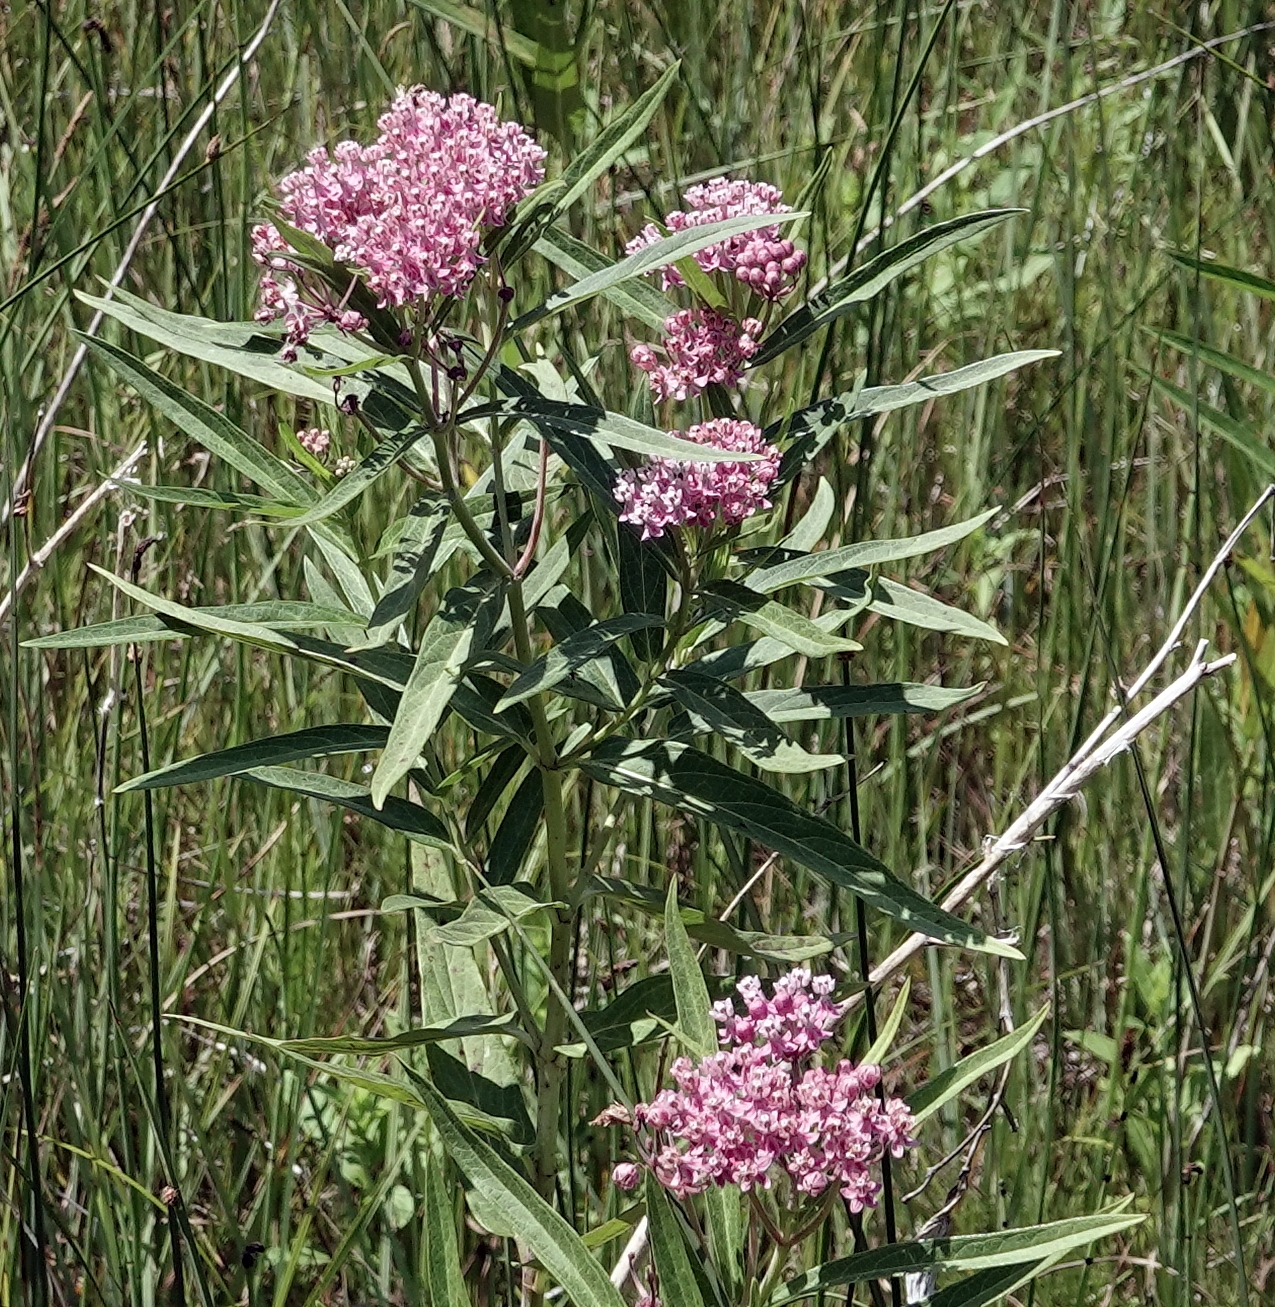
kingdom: Plantae
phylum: Tracheophyta
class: Magnoliopsida
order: Gentianales
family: Apocynaceae
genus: Asclepias
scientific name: Asclepias incarnata
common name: Swamp milkweed
